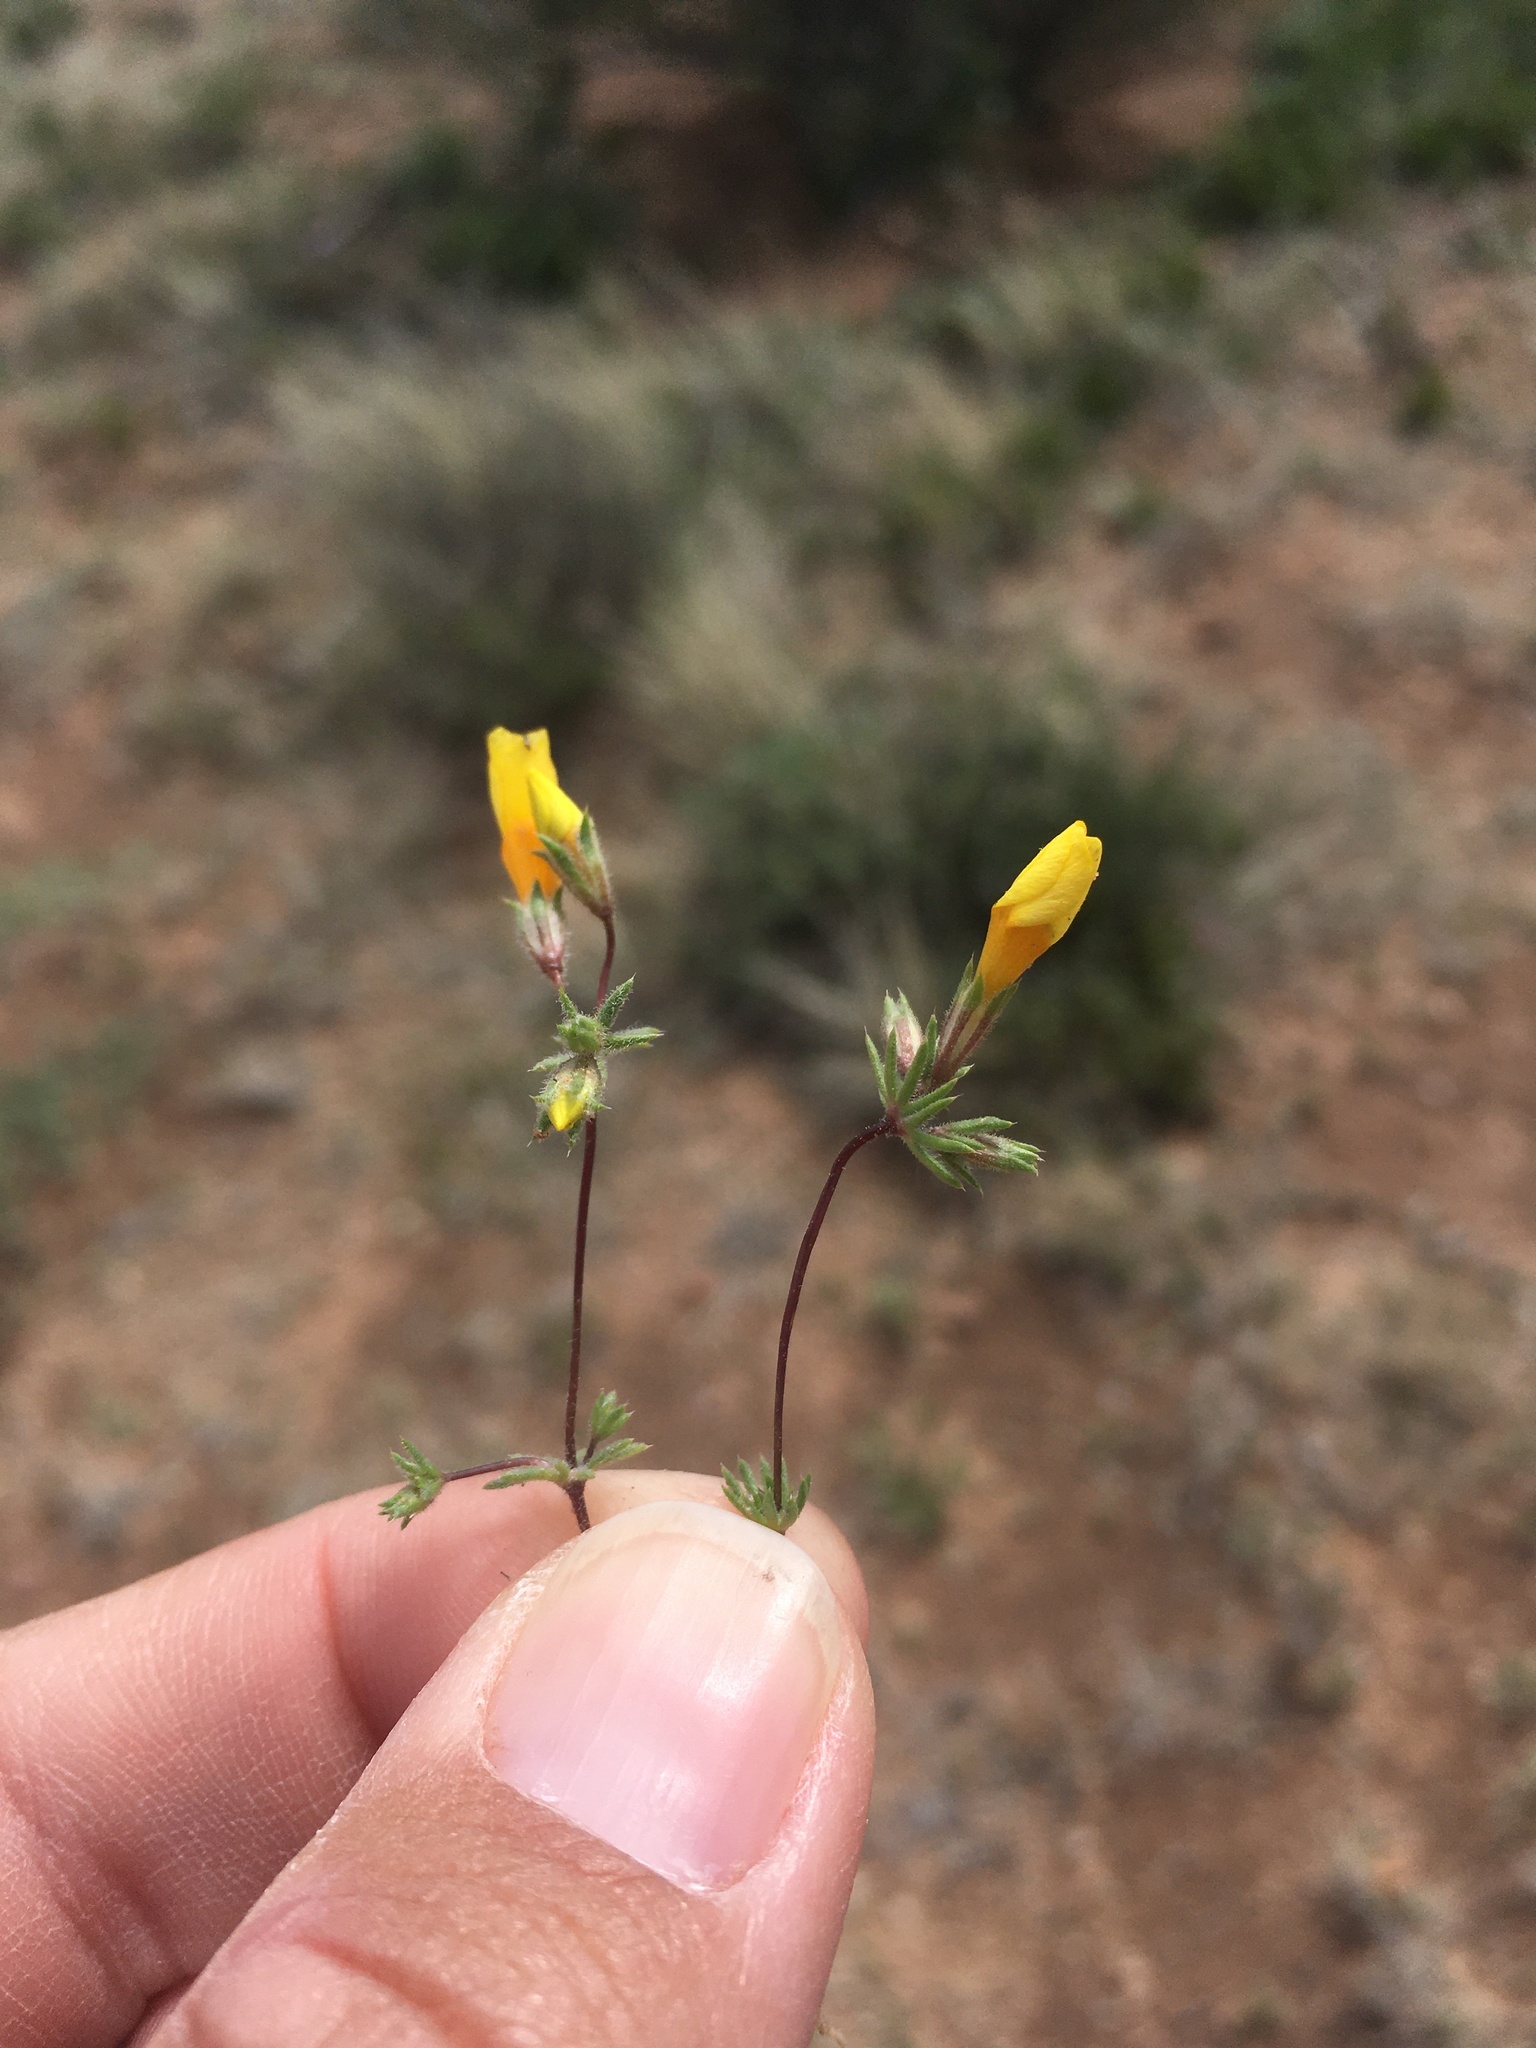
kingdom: Plantae
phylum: Tracheophyta
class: Magnoliopsida
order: Ericales
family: Polemoniaceae
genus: Leptosiphon
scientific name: Leptosiphon chrysanthus
